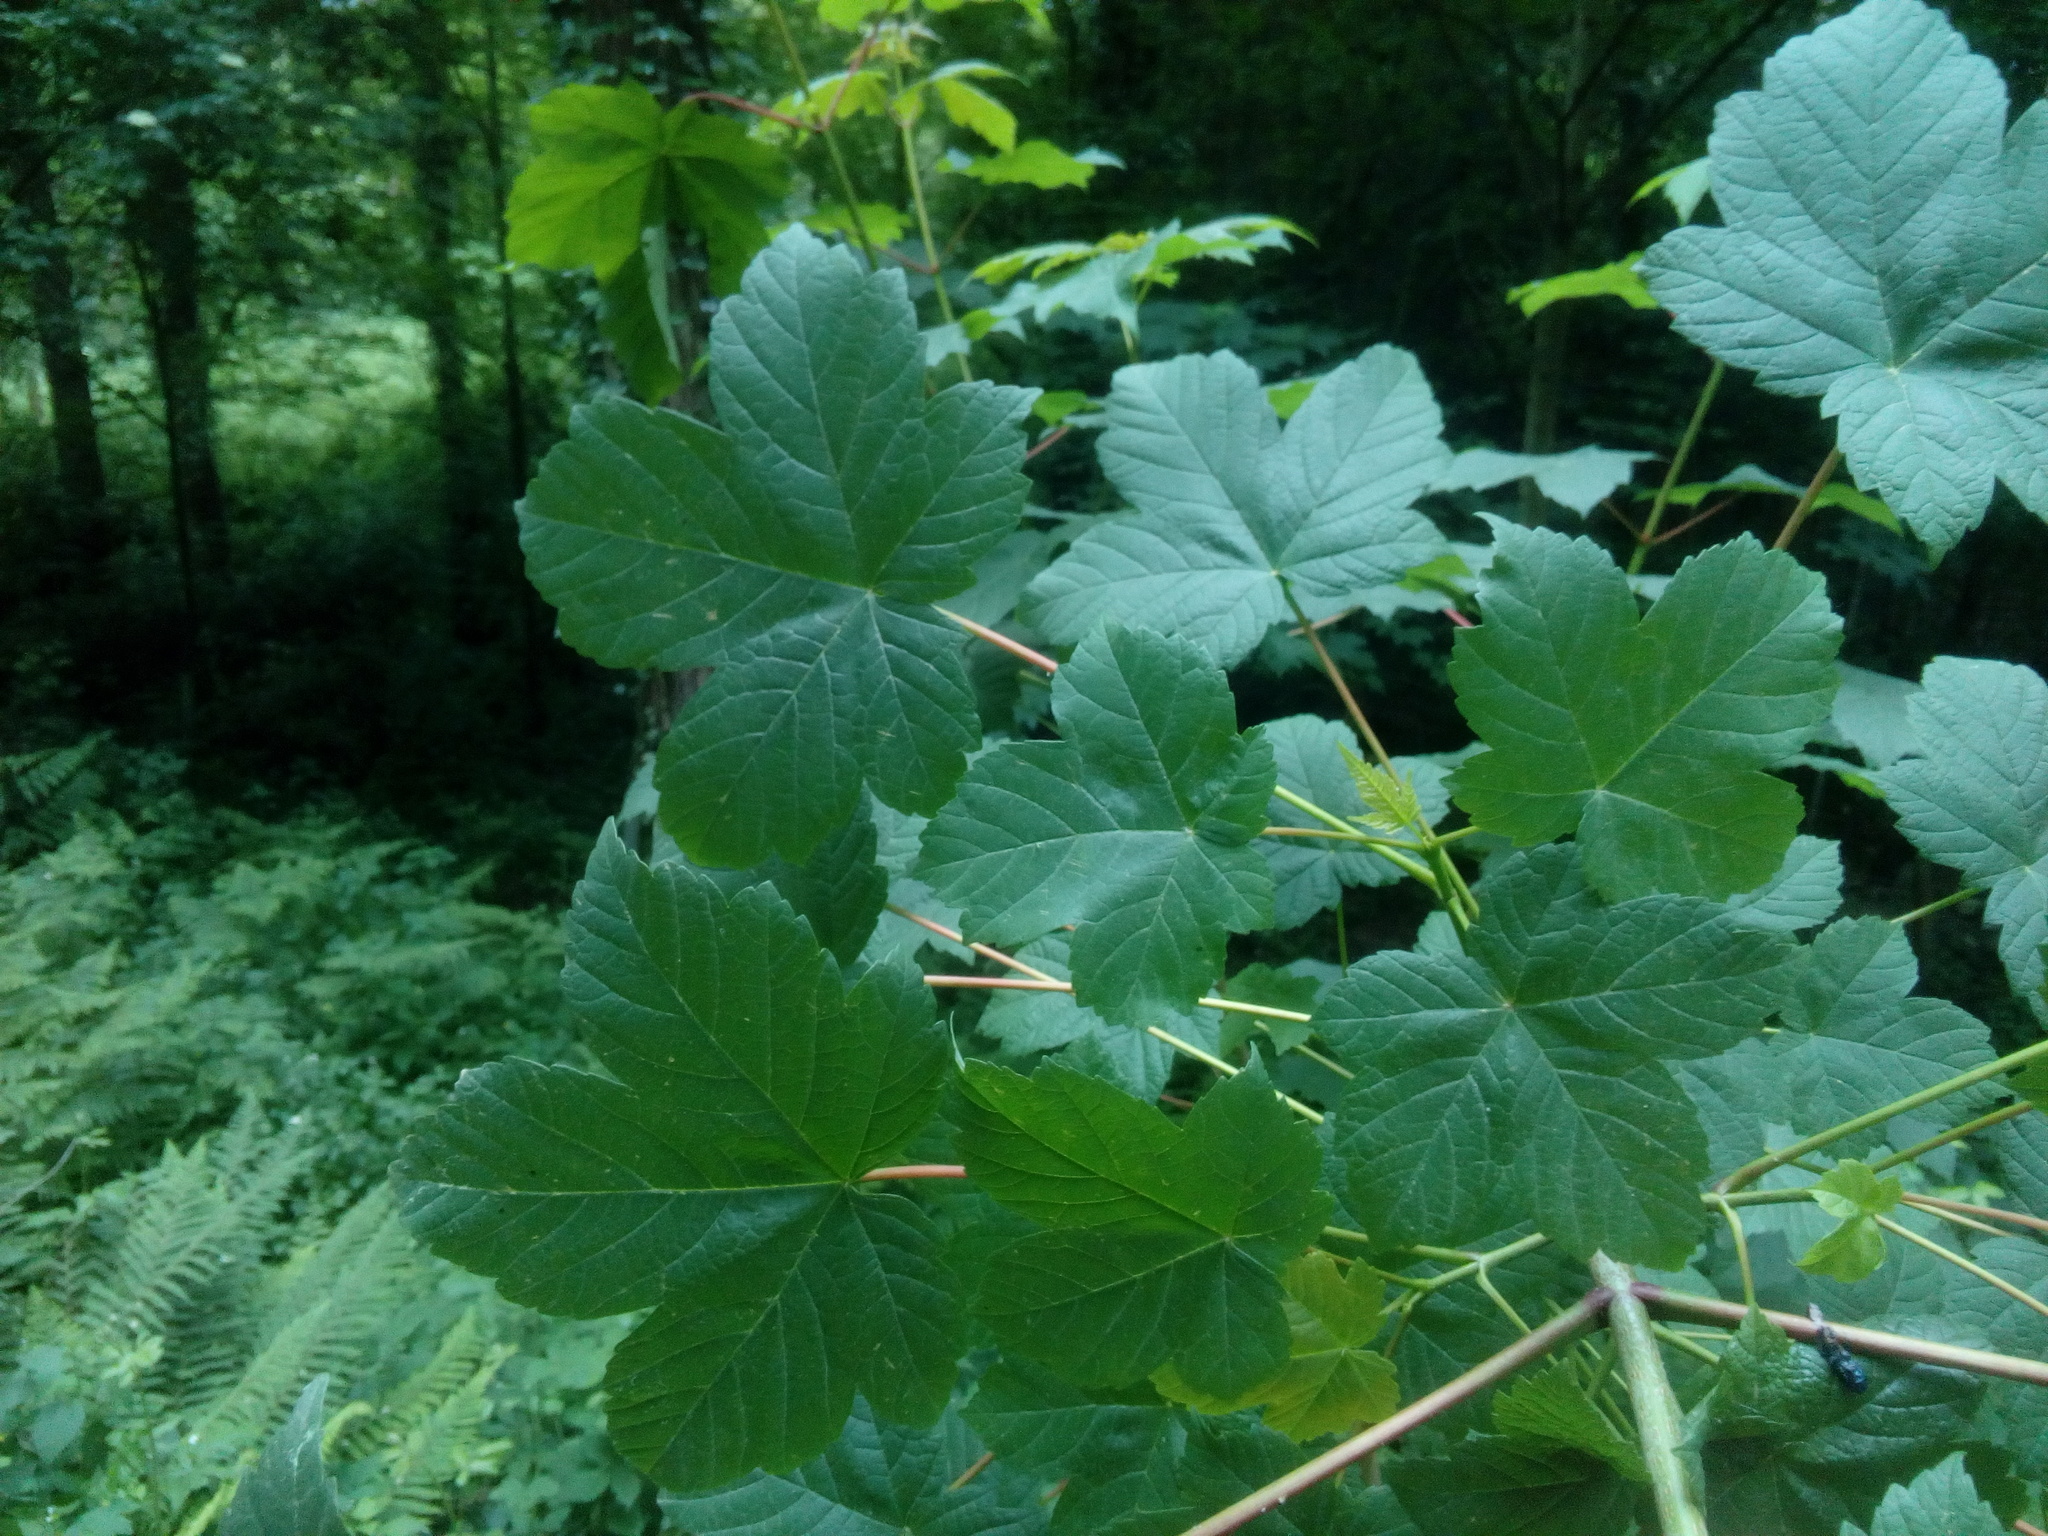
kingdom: Plantae
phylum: Tracheophyta
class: Magnoliopsida
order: Sapindales
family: Sapindaceae
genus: Acer
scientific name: Acer pseudoplatanus
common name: Sycamore
